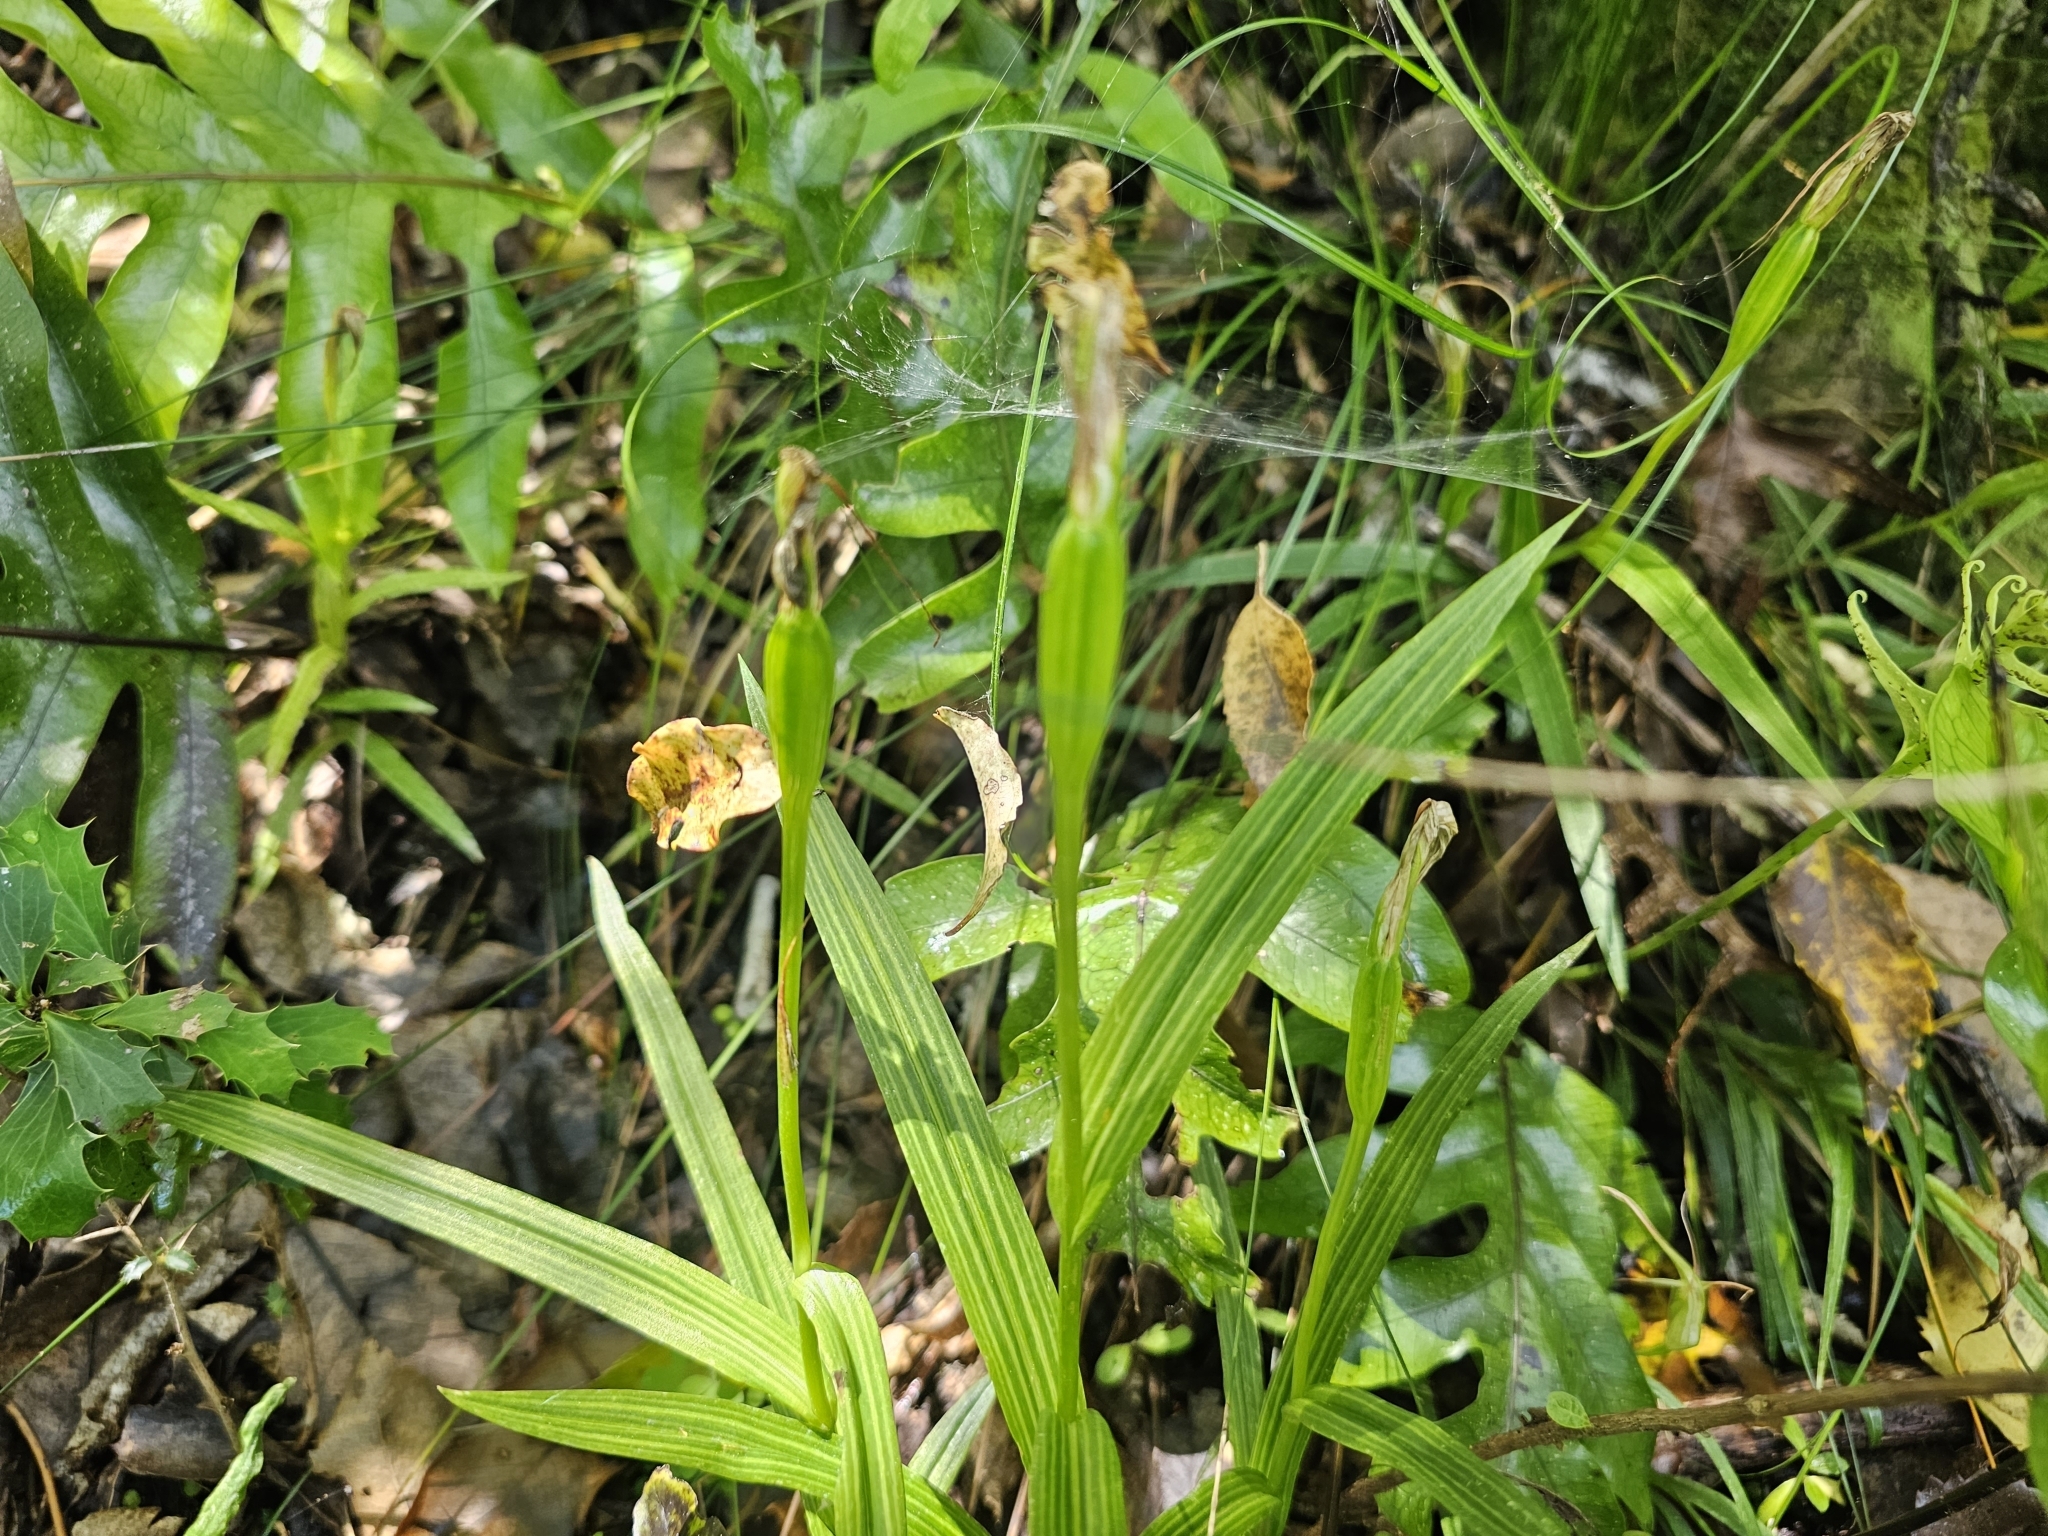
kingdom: Plantae
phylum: Tracheophyta
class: Liliopsida
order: Asparagales
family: Orchidaceae
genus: Pterostylis
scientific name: Pterostylis banksii
